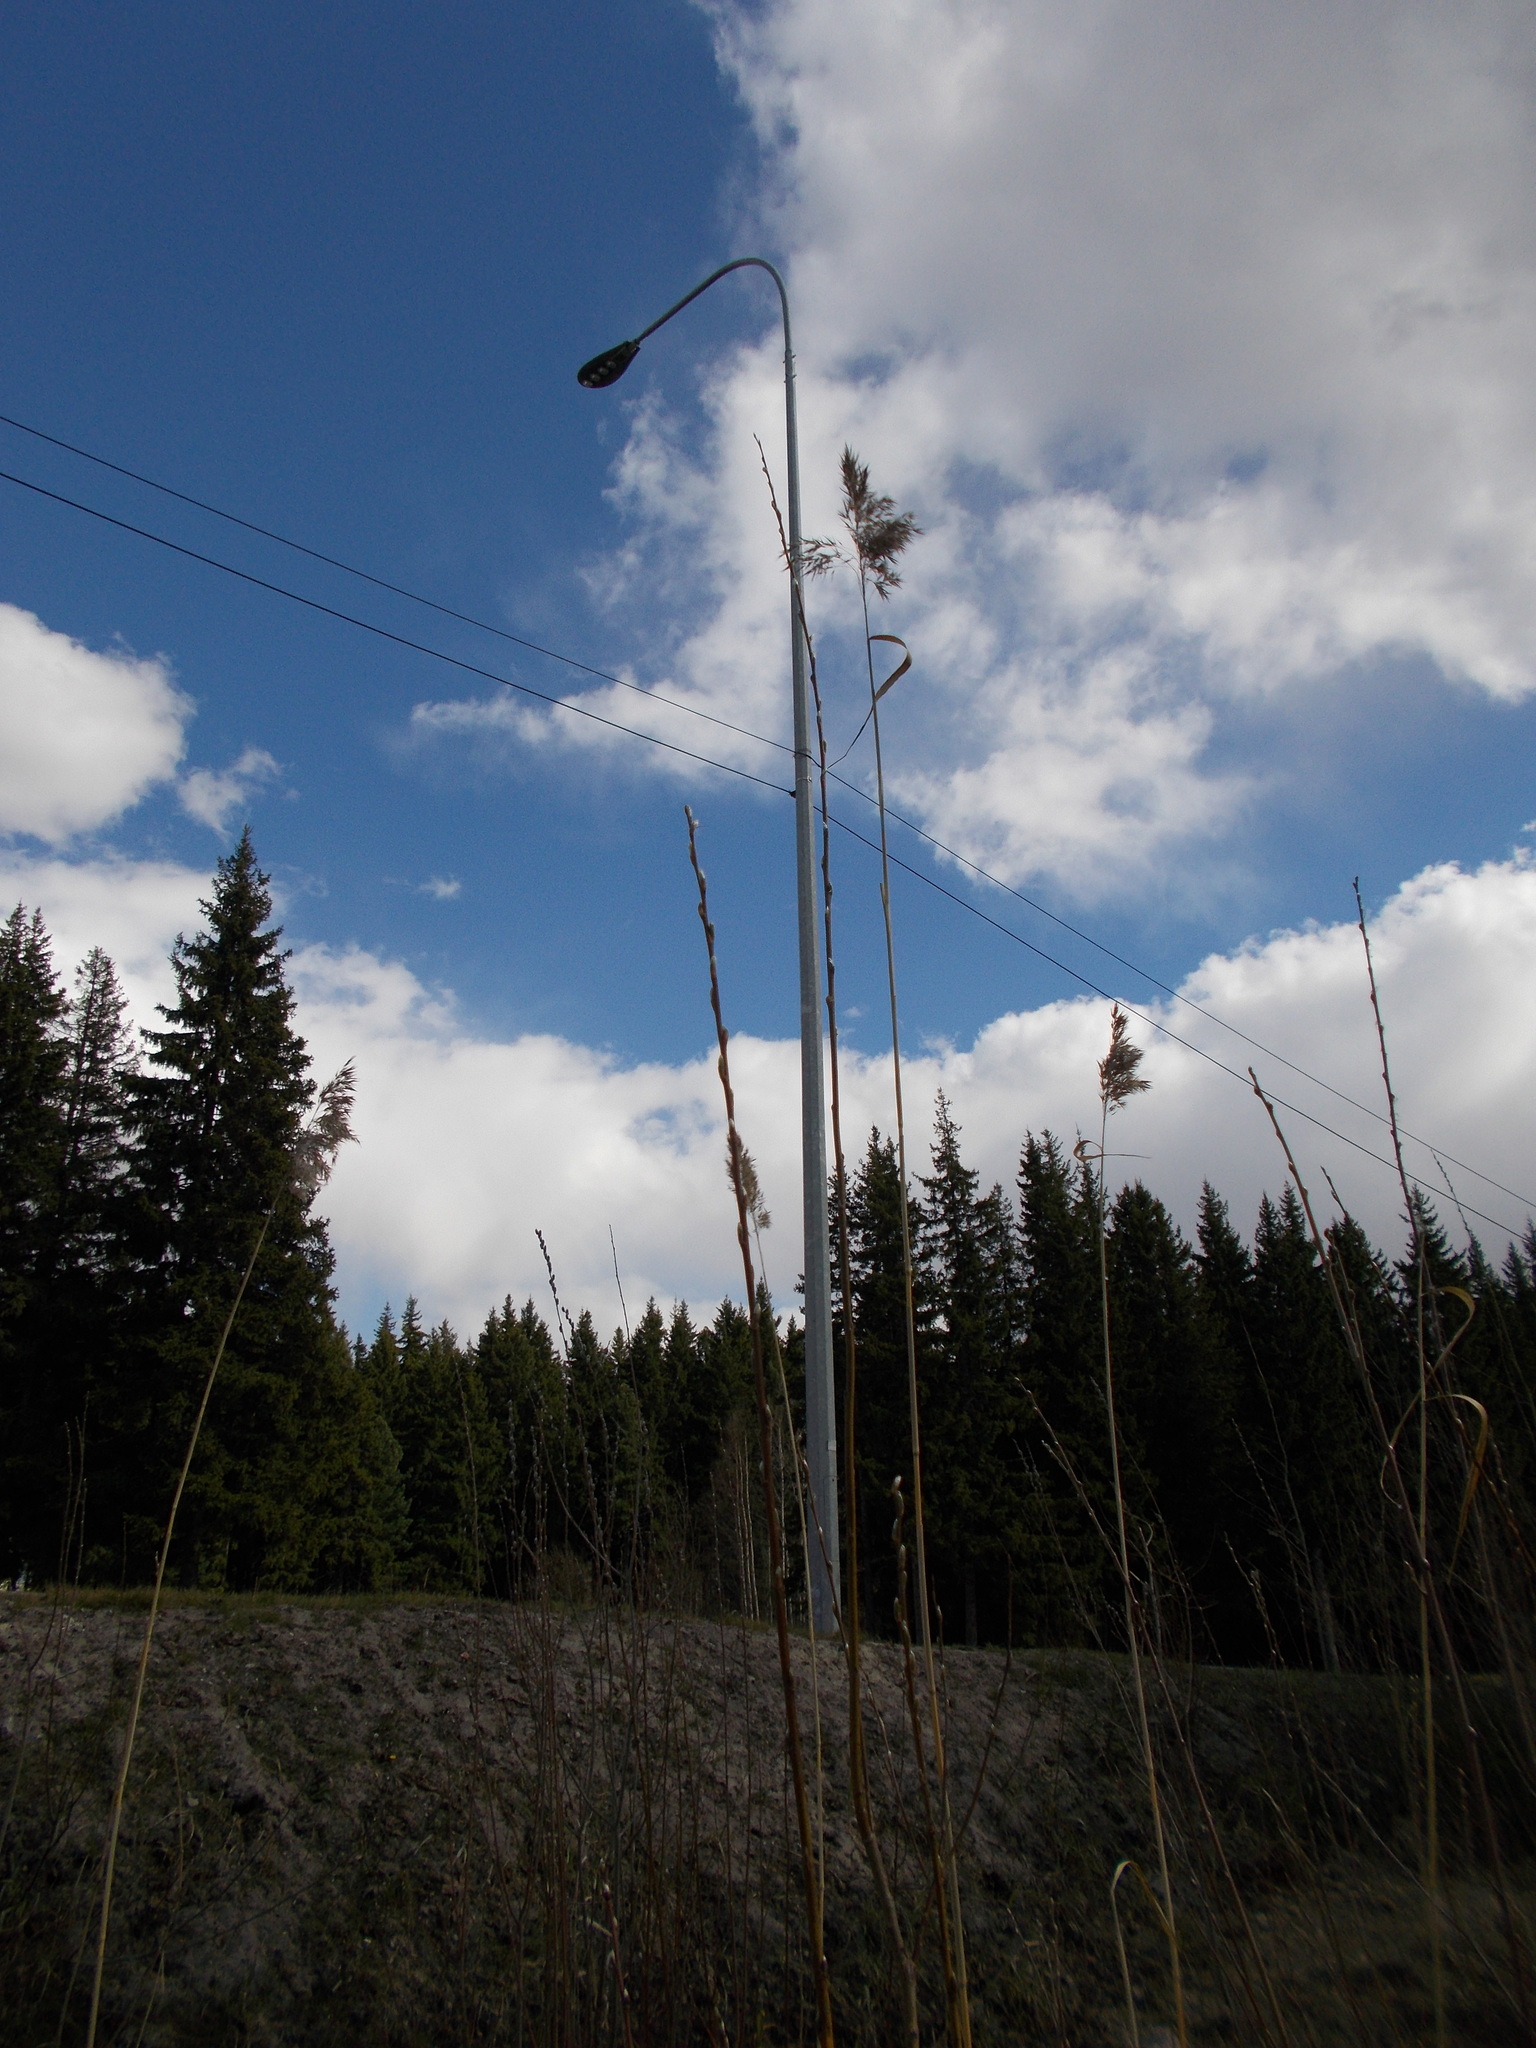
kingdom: Plantae
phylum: Tracheophyta
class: Liliopsida
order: Poales
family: Poaceae
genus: Phragmites
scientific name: Phragmites australis
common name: Common reed
